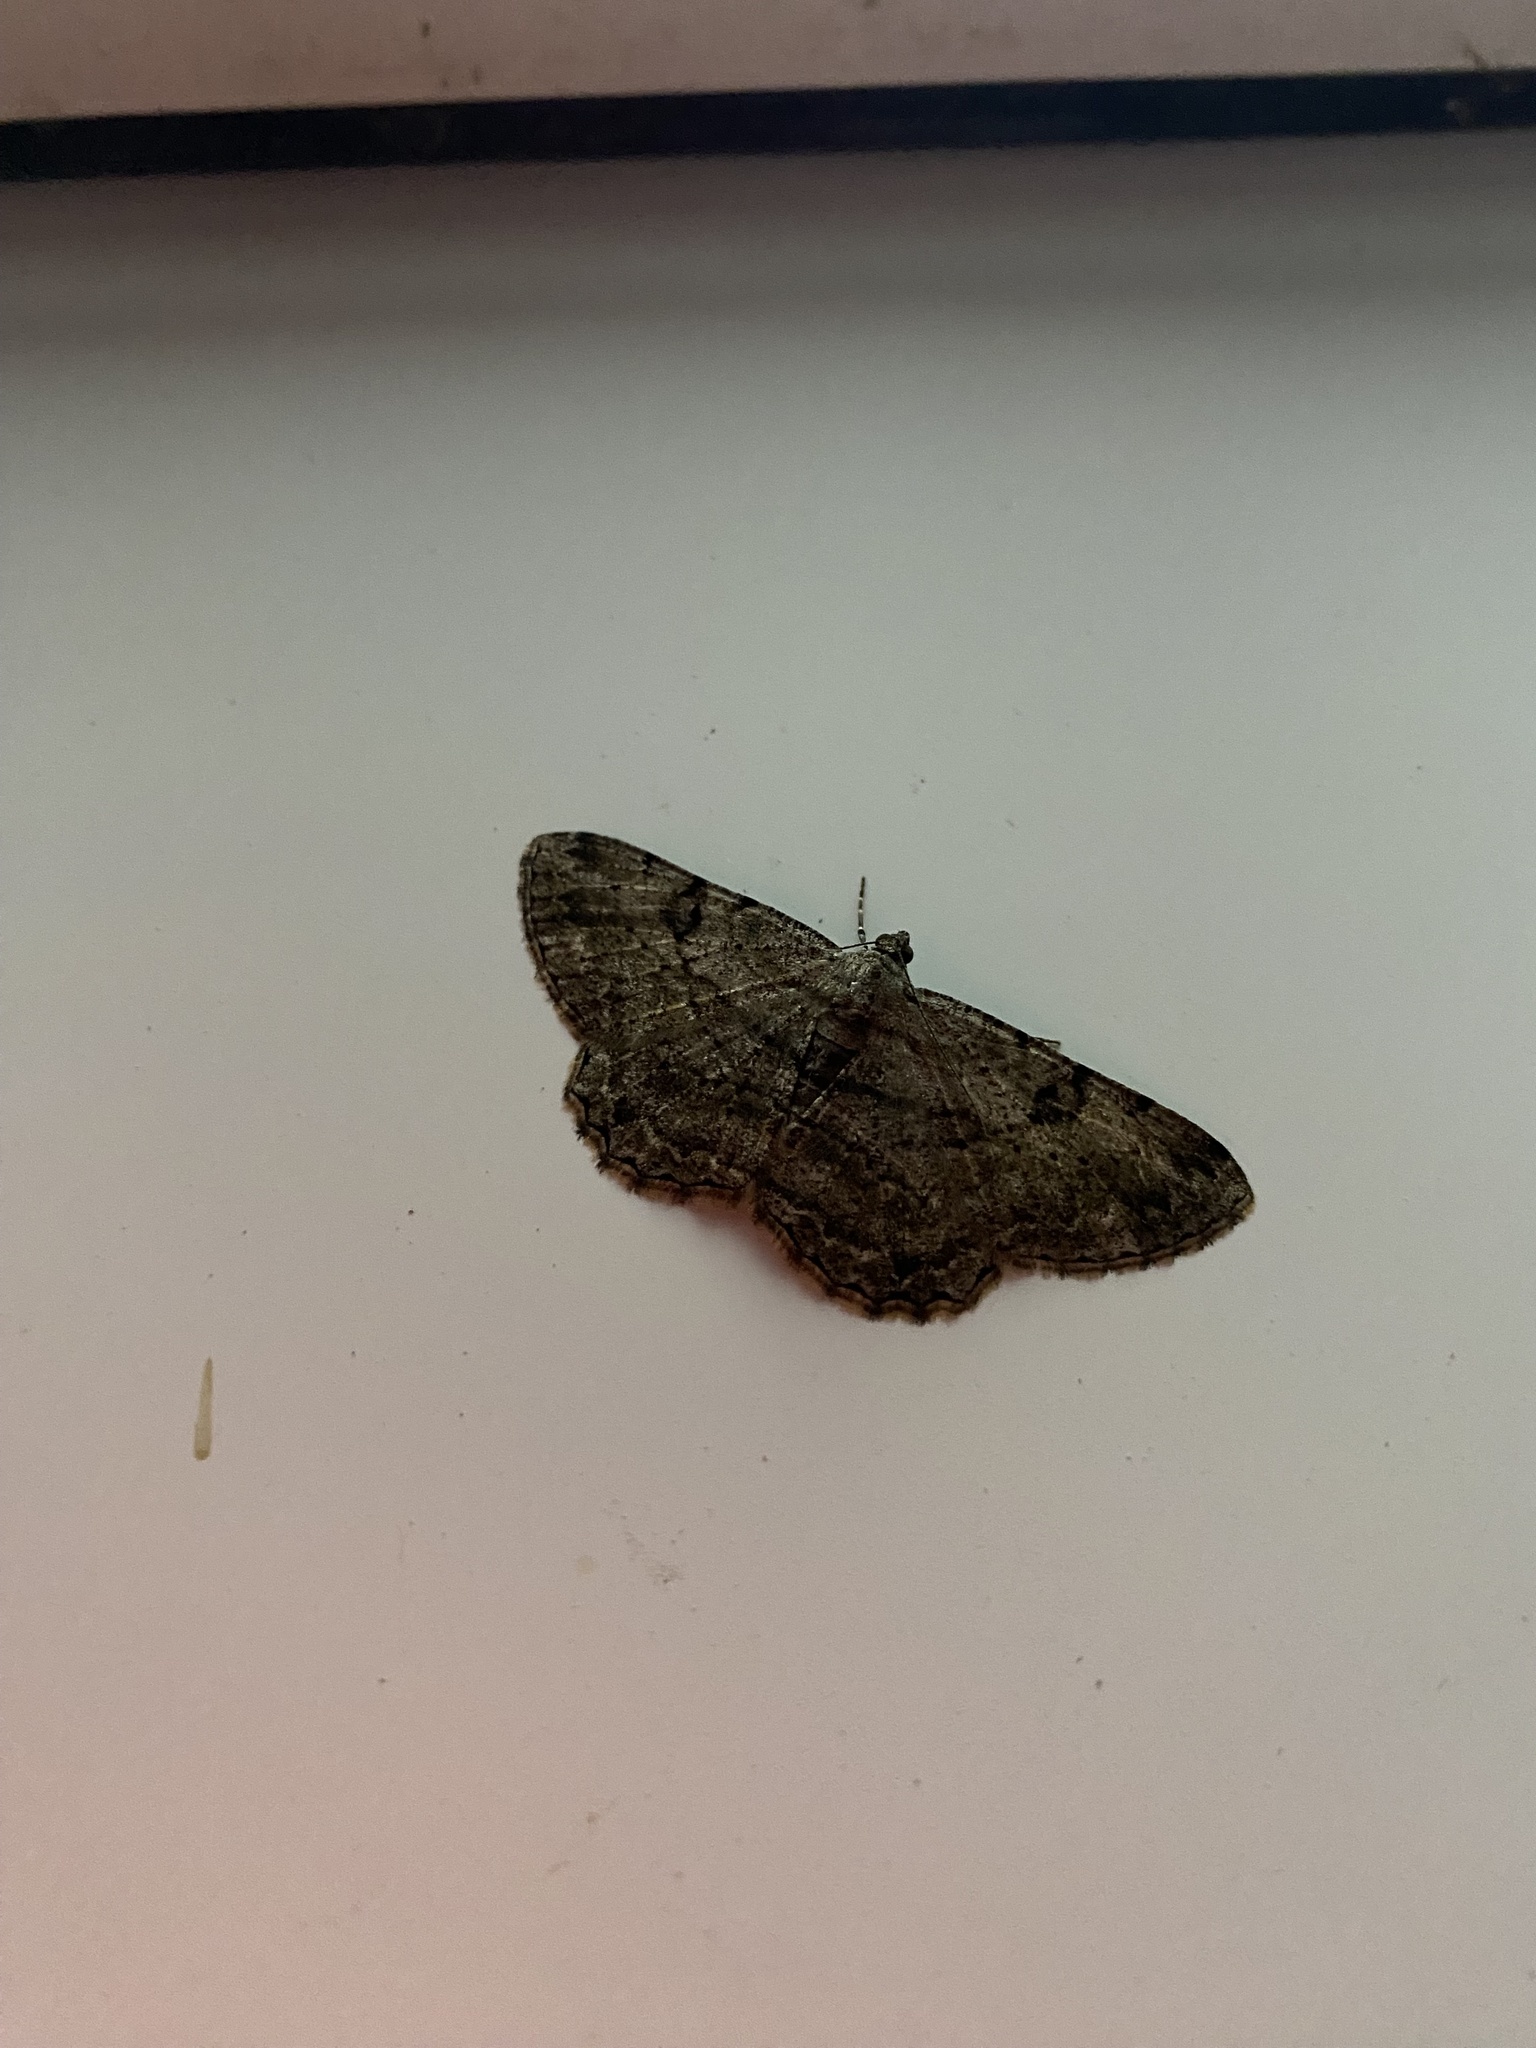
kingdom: Animalia
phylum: Arthropoda
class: Insecta
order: Lepidoptera
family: Geometridae
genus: Peribatodes
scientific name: Peribatodes rhomboidaria
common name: Willow beauty
